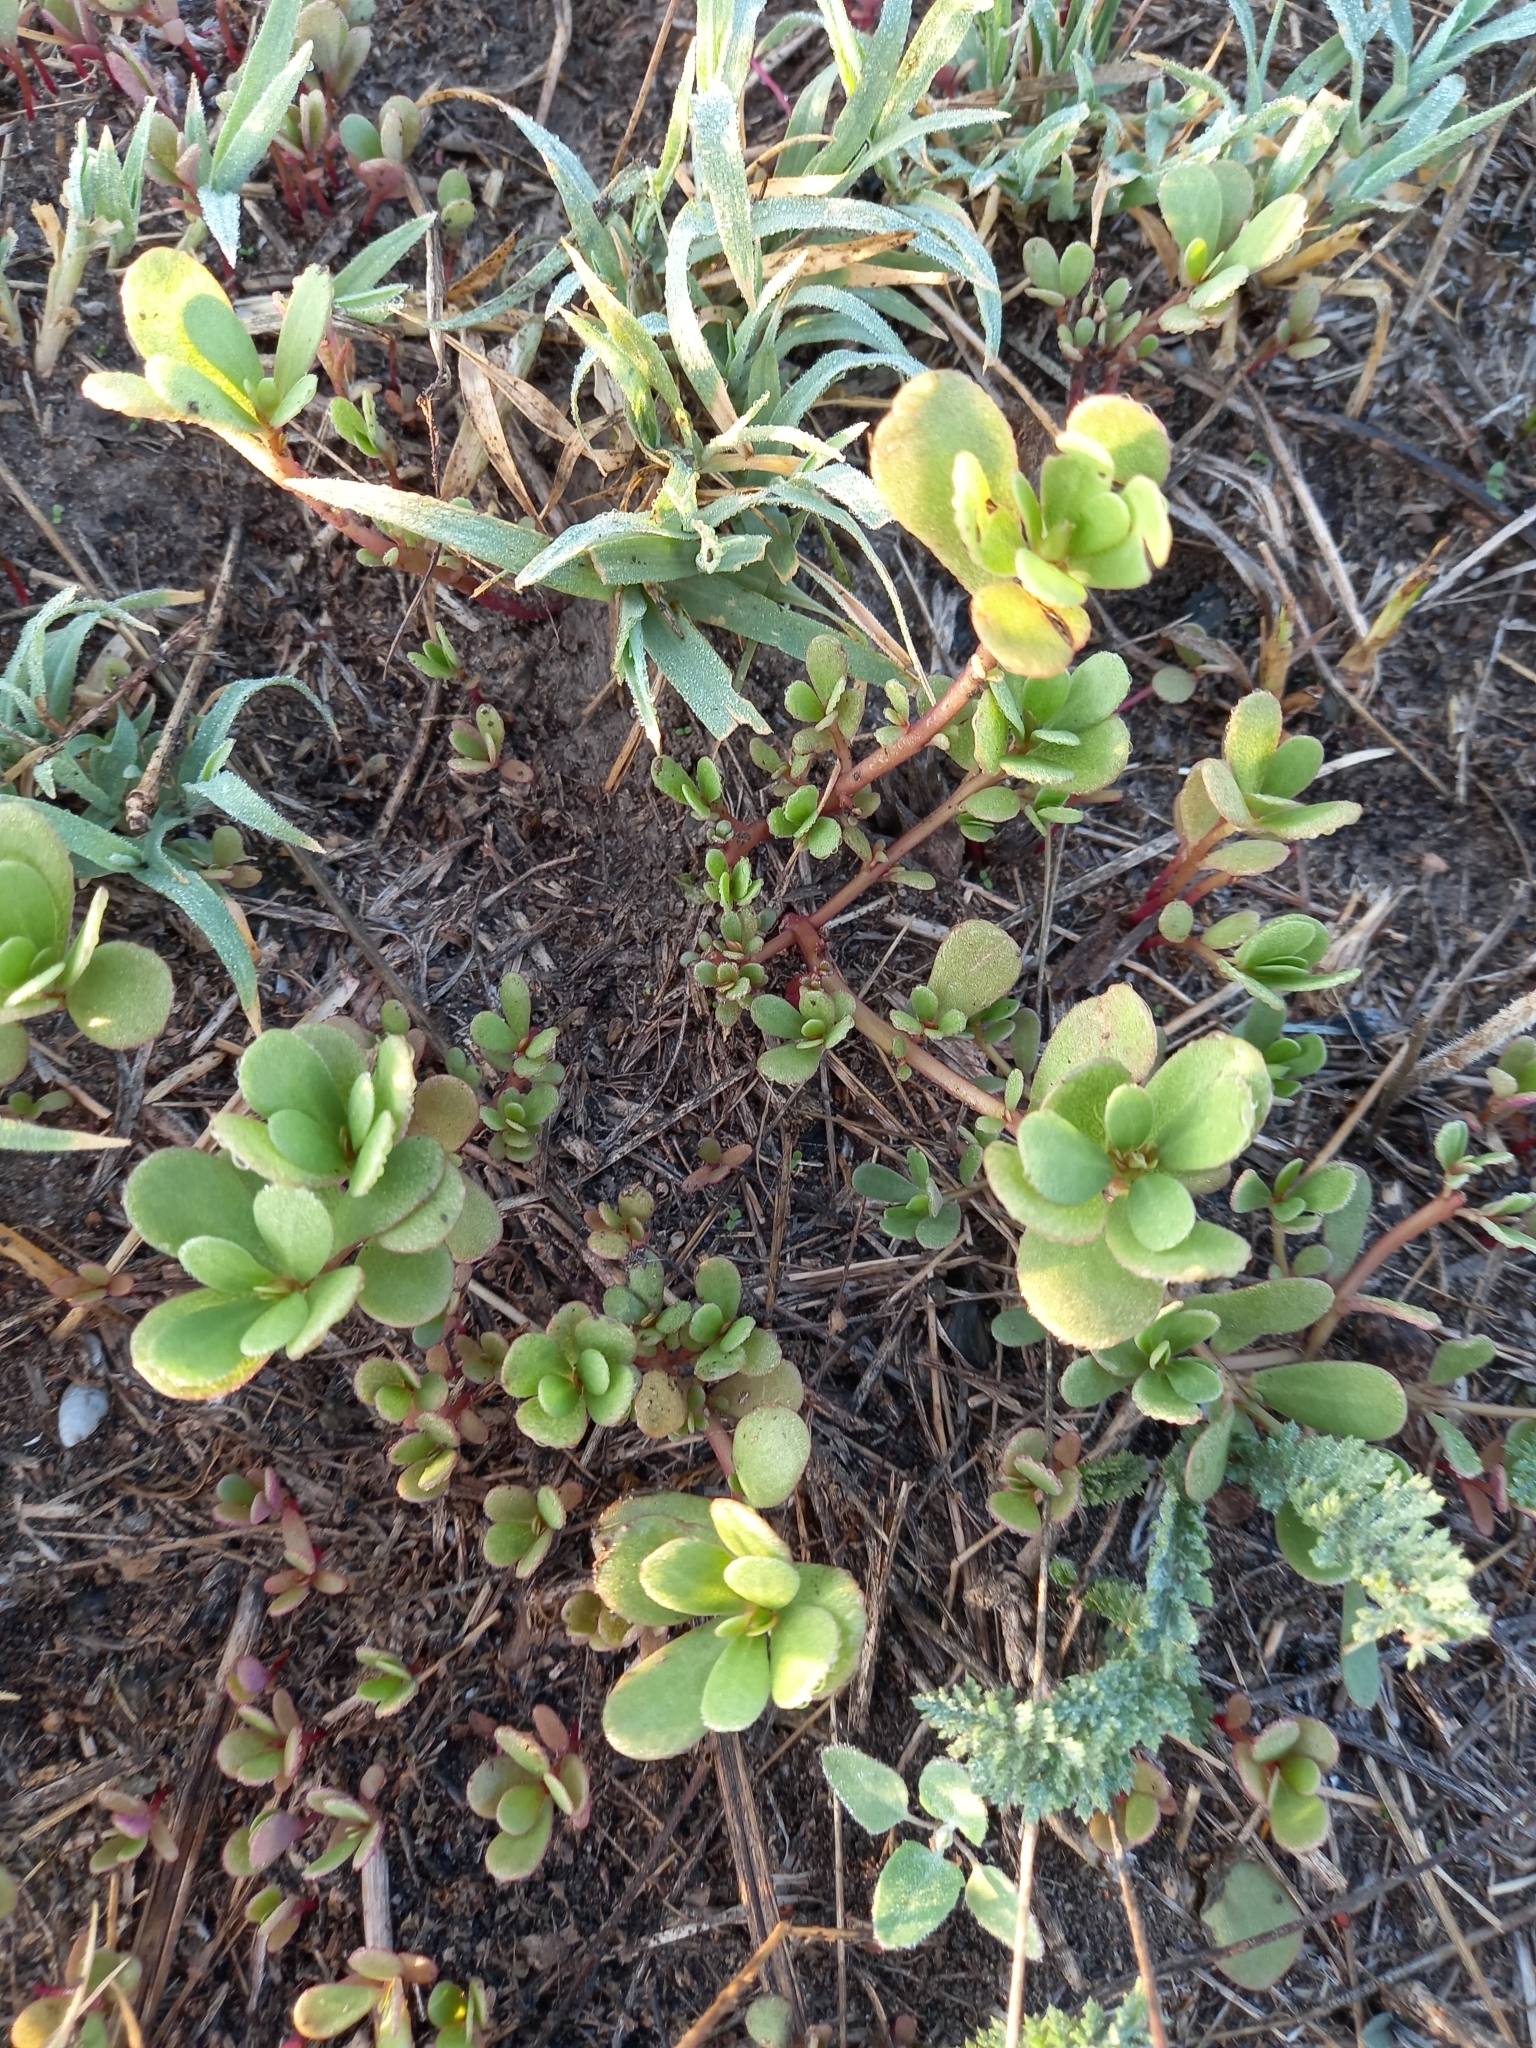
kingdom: Plantae
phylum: Tracheophyta
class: Magnoliopsida
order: Caryophyllales
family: Portulacaceae
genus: Portulaca
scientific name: Portulaca oleracea
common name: Common purslane
